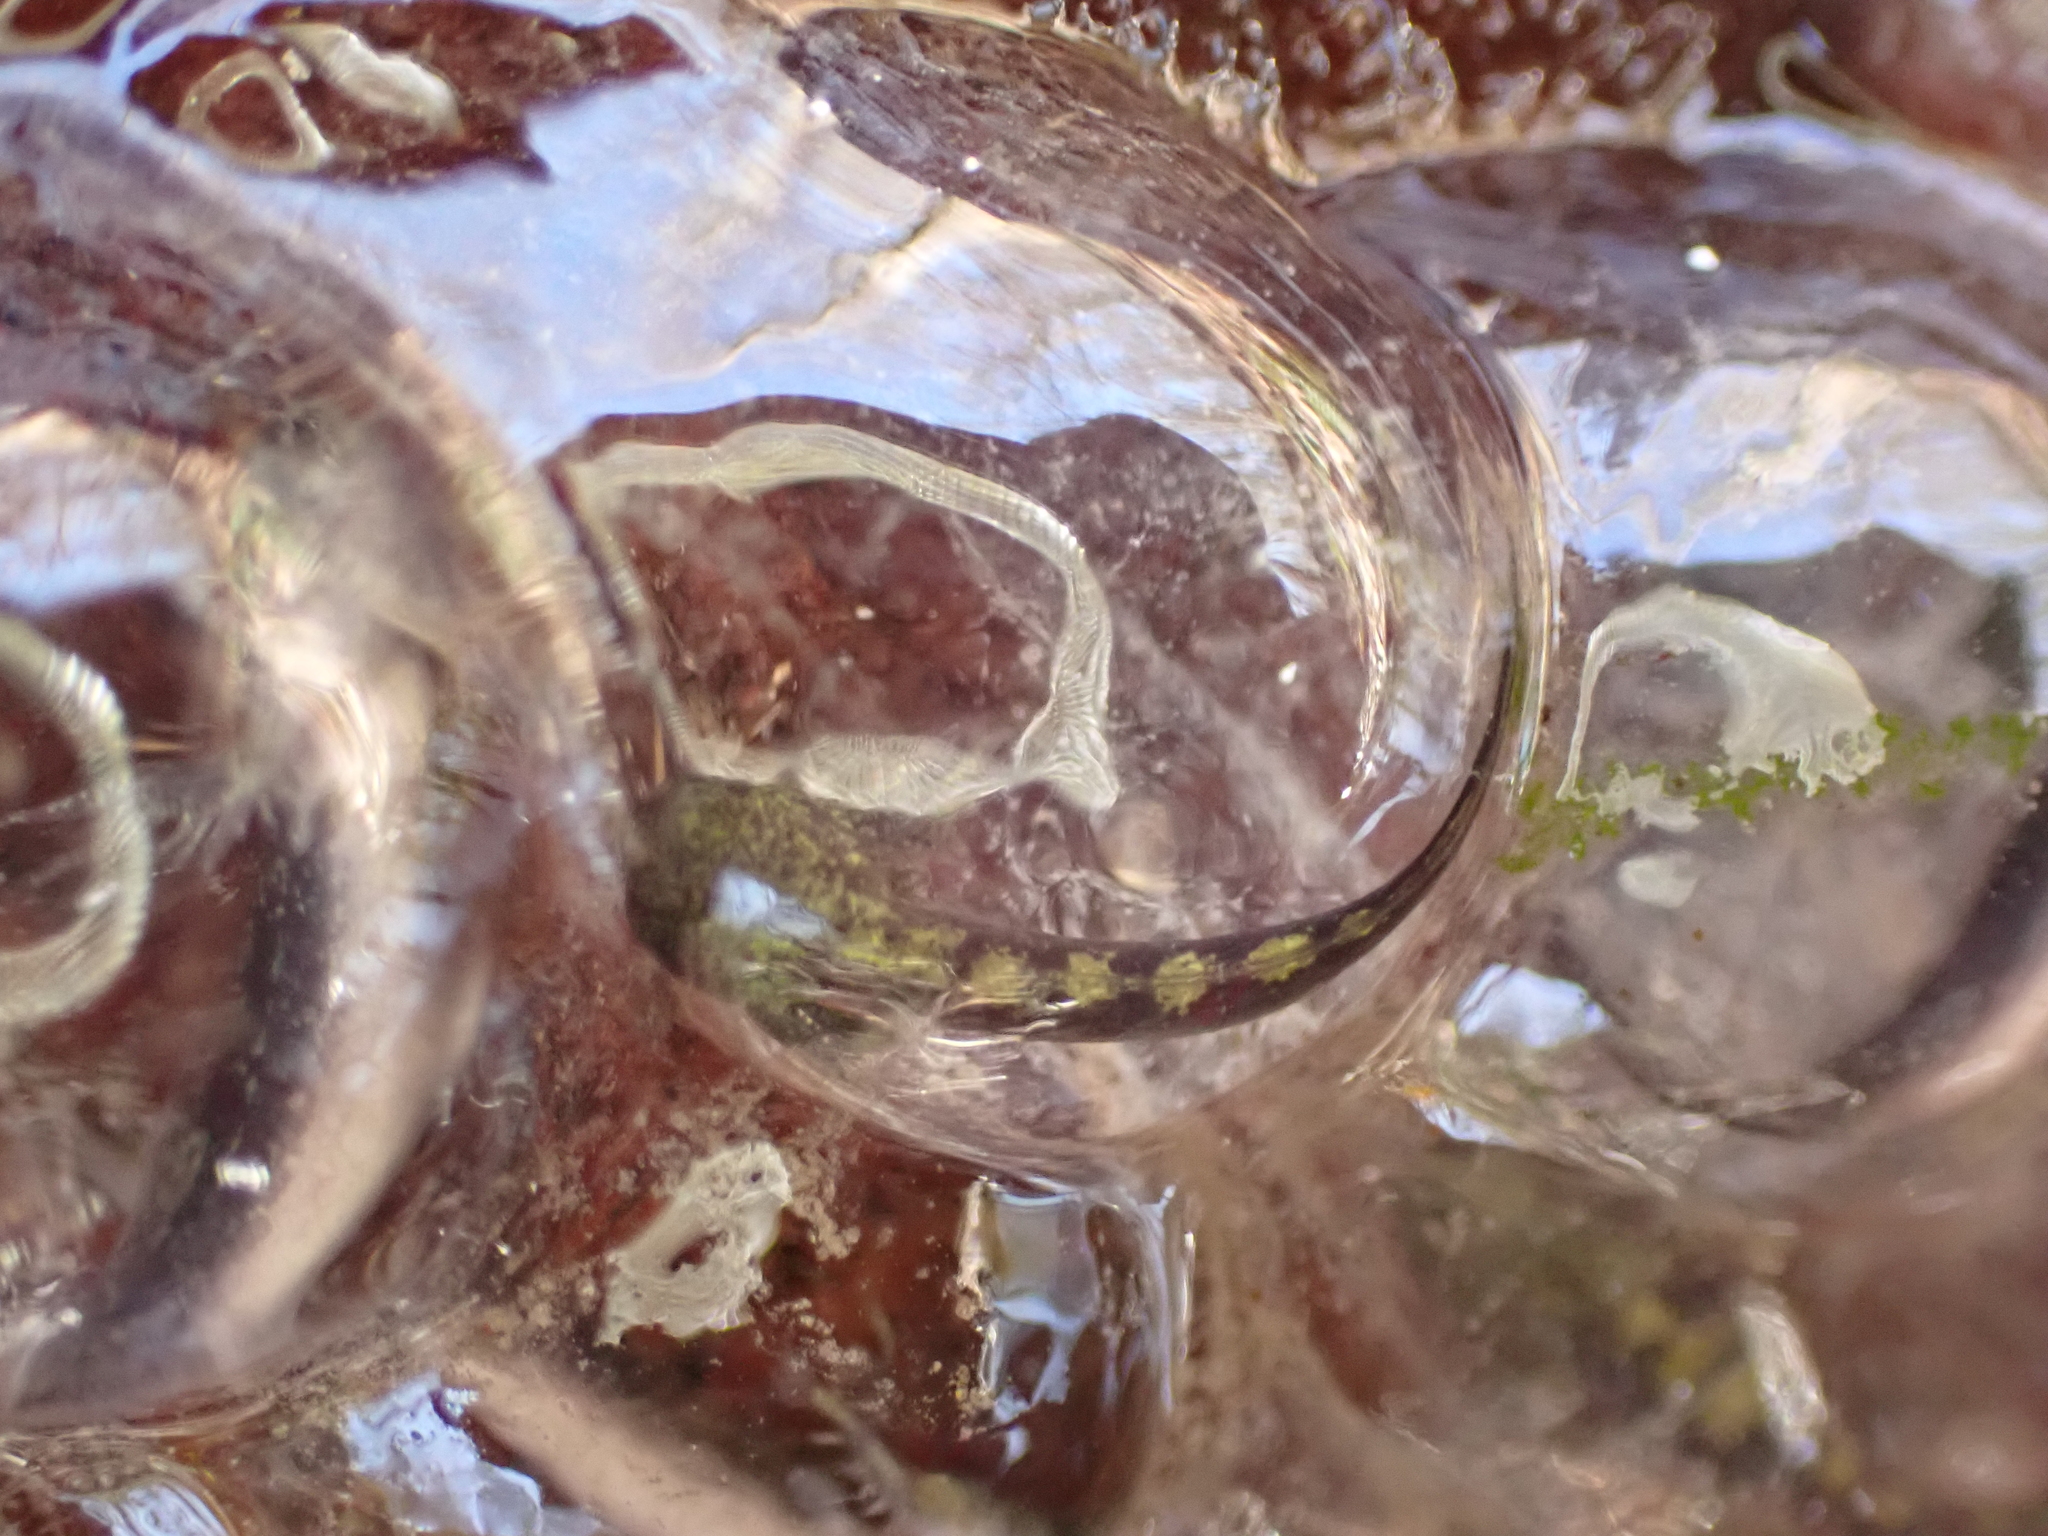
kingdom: Animalia
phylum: Chordata
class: Amphibia
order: Caudata
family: Ambystomatidae
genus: Ambystoma
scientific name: Ambystoma barbouri
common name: Streamside salamander
